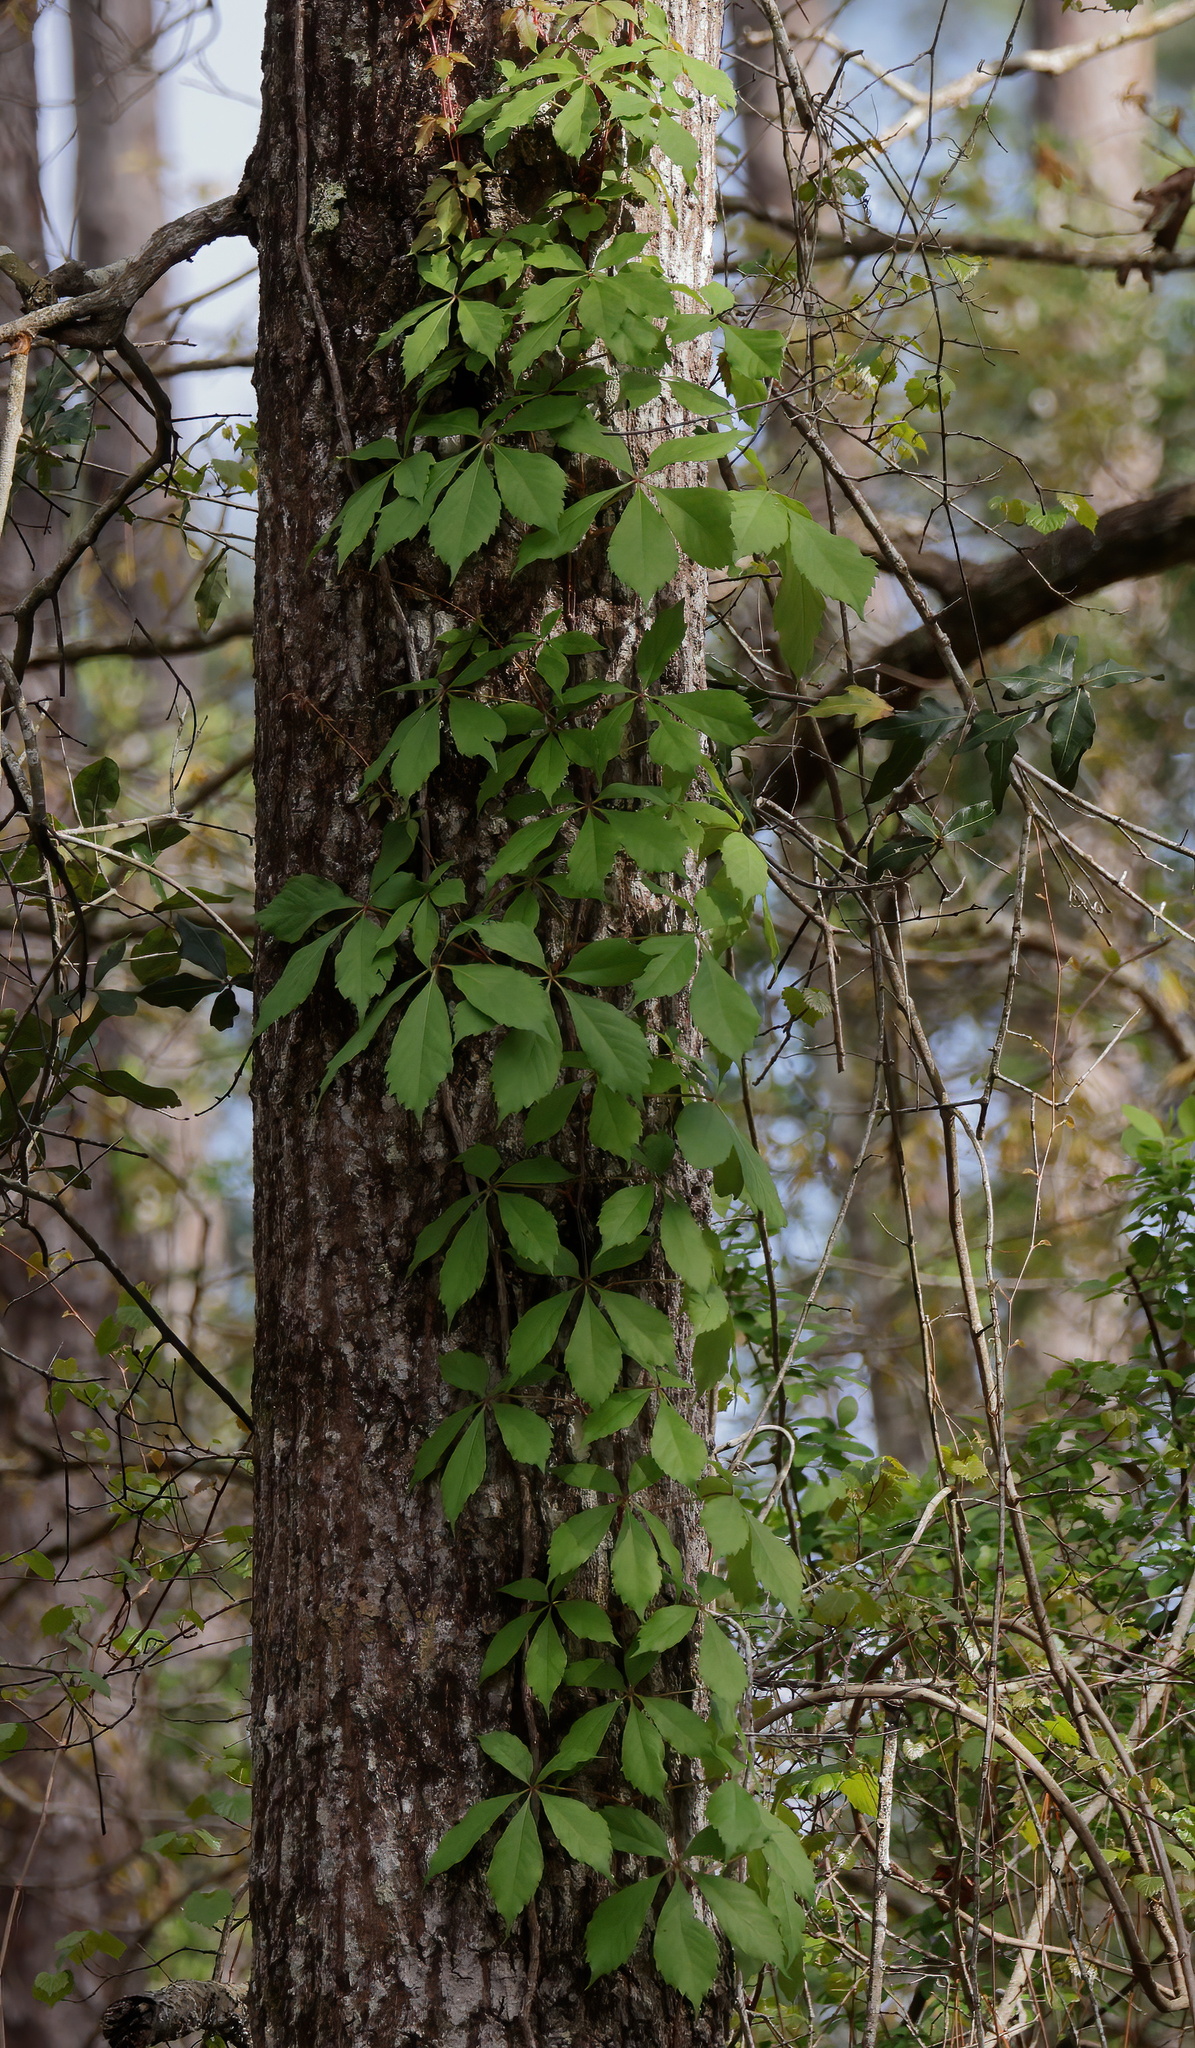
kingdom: Plantae
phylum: Tracheophyta
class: Magnoliopsida
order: Vitales
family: Vitaceae
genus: Parthenocissus
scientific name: Parthenocissus quinquefolia
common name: Virginia-creeper
